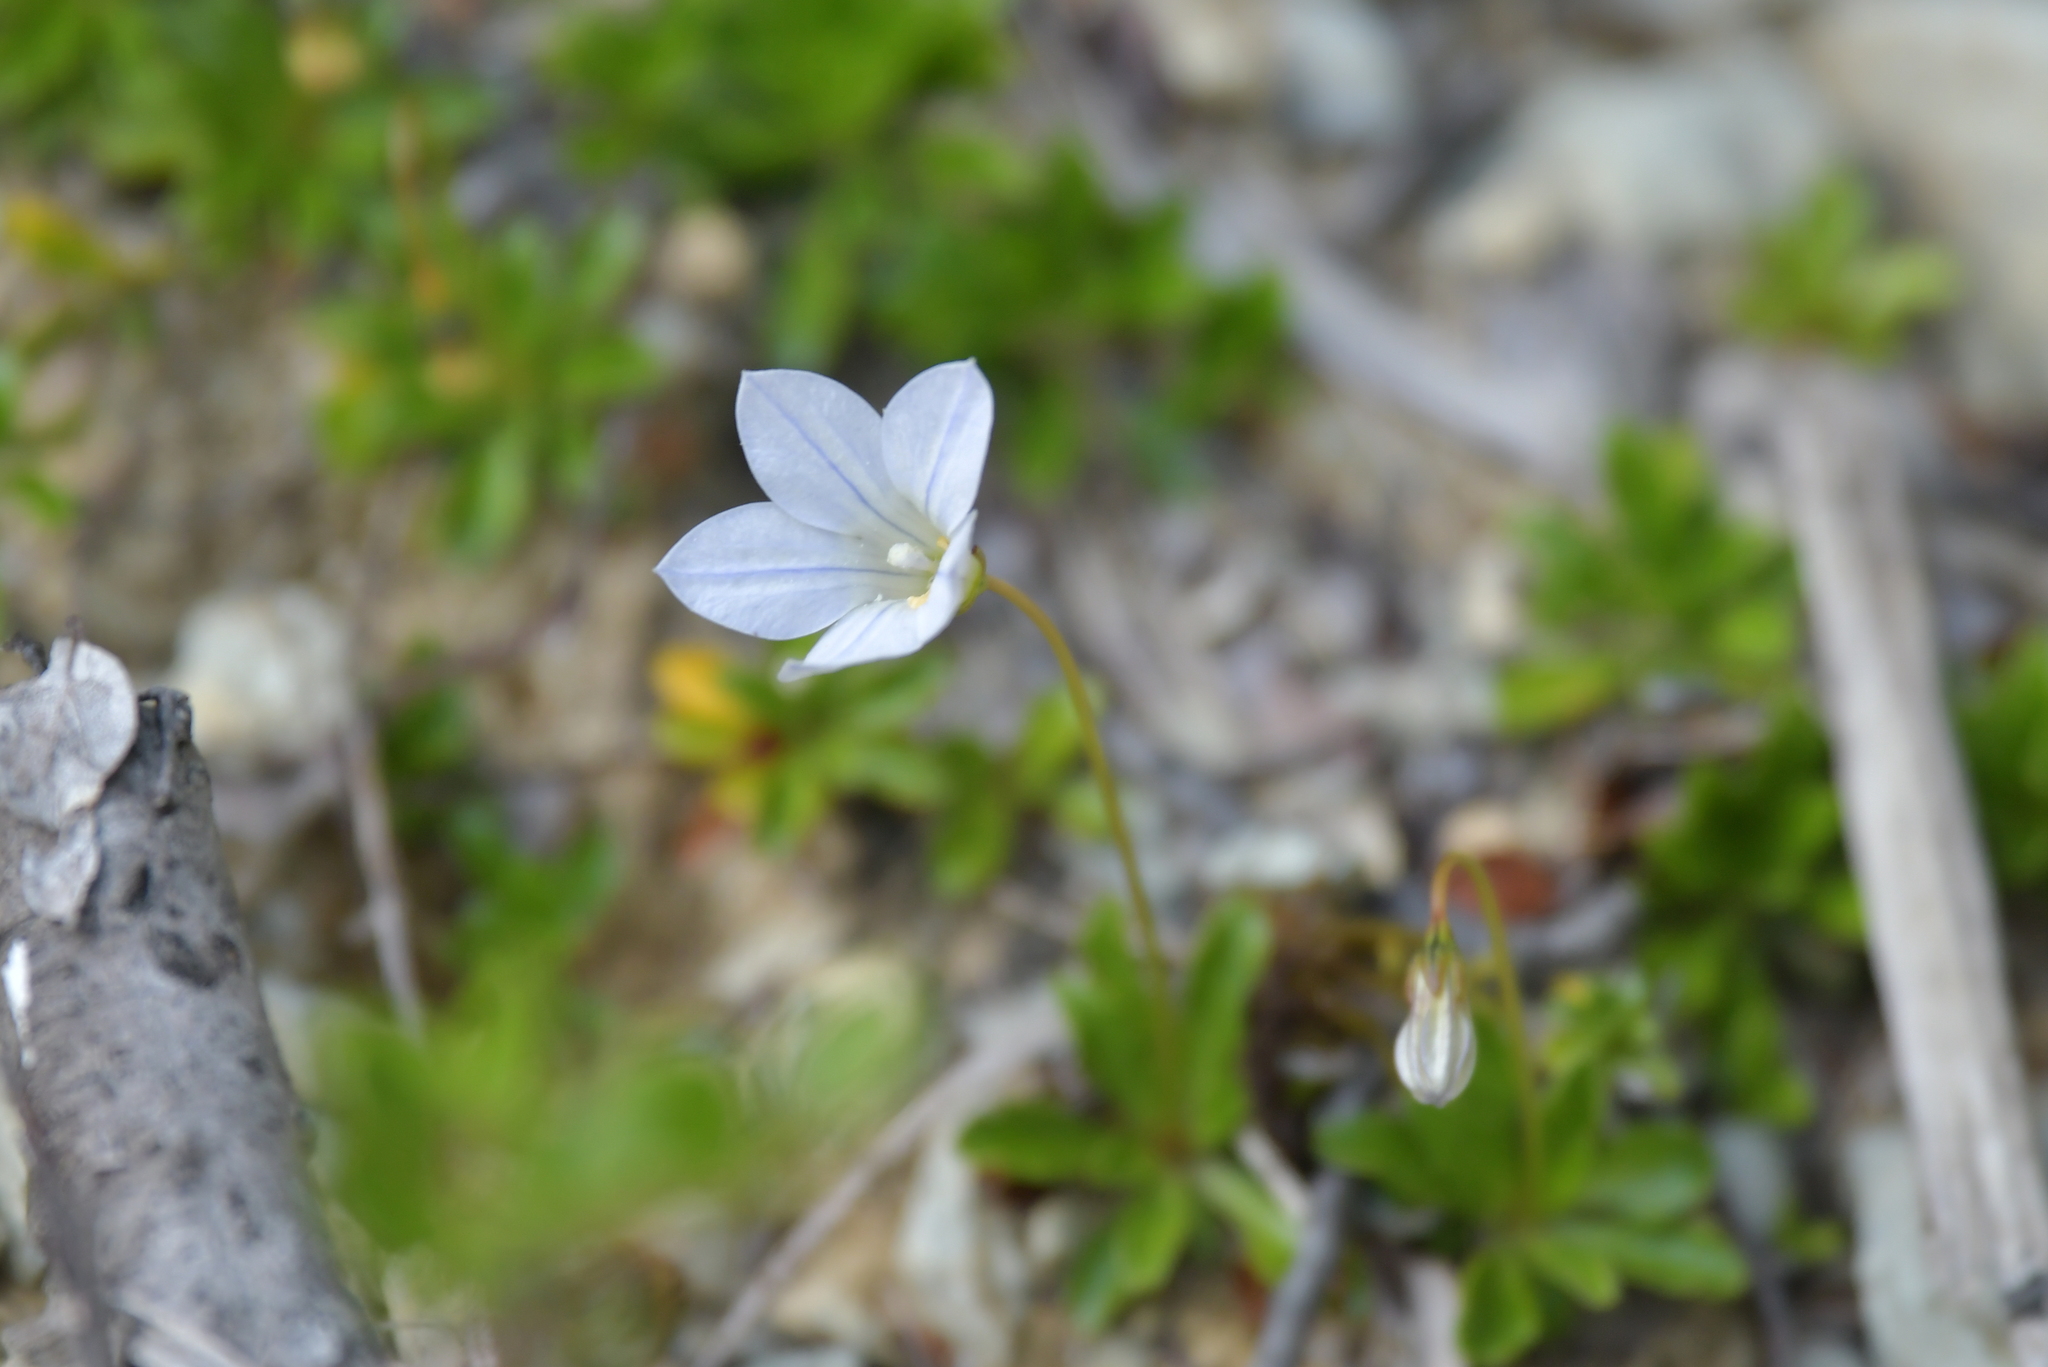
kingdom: Plantae
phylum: Tracheophyta
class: Magnoliopsida
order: Asterales
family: Campanulaceae
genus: Wahlenbergia
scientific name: Wahlenbergia albomarginata
